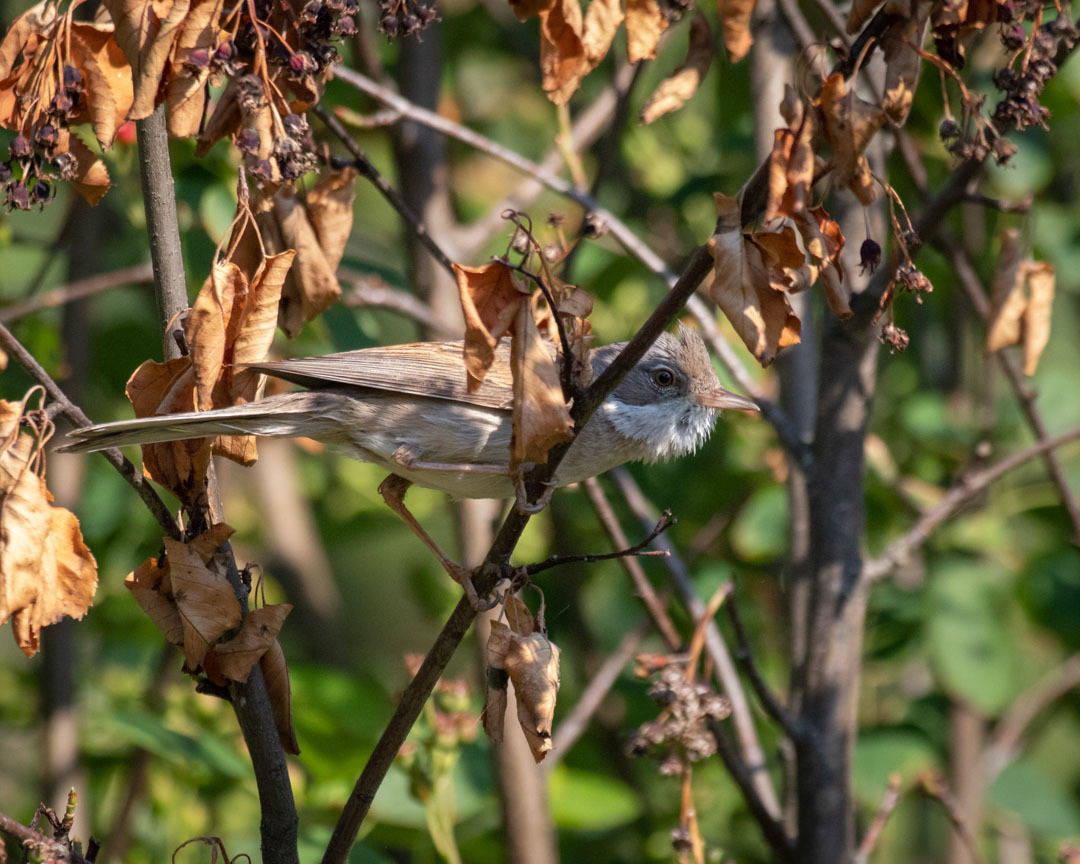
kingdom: Animalia
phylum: Chordata
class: Aves
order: Passeriformes
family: Sylviidae
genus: Sylvia
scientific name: Sylvia communis
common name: Common whitethroat
